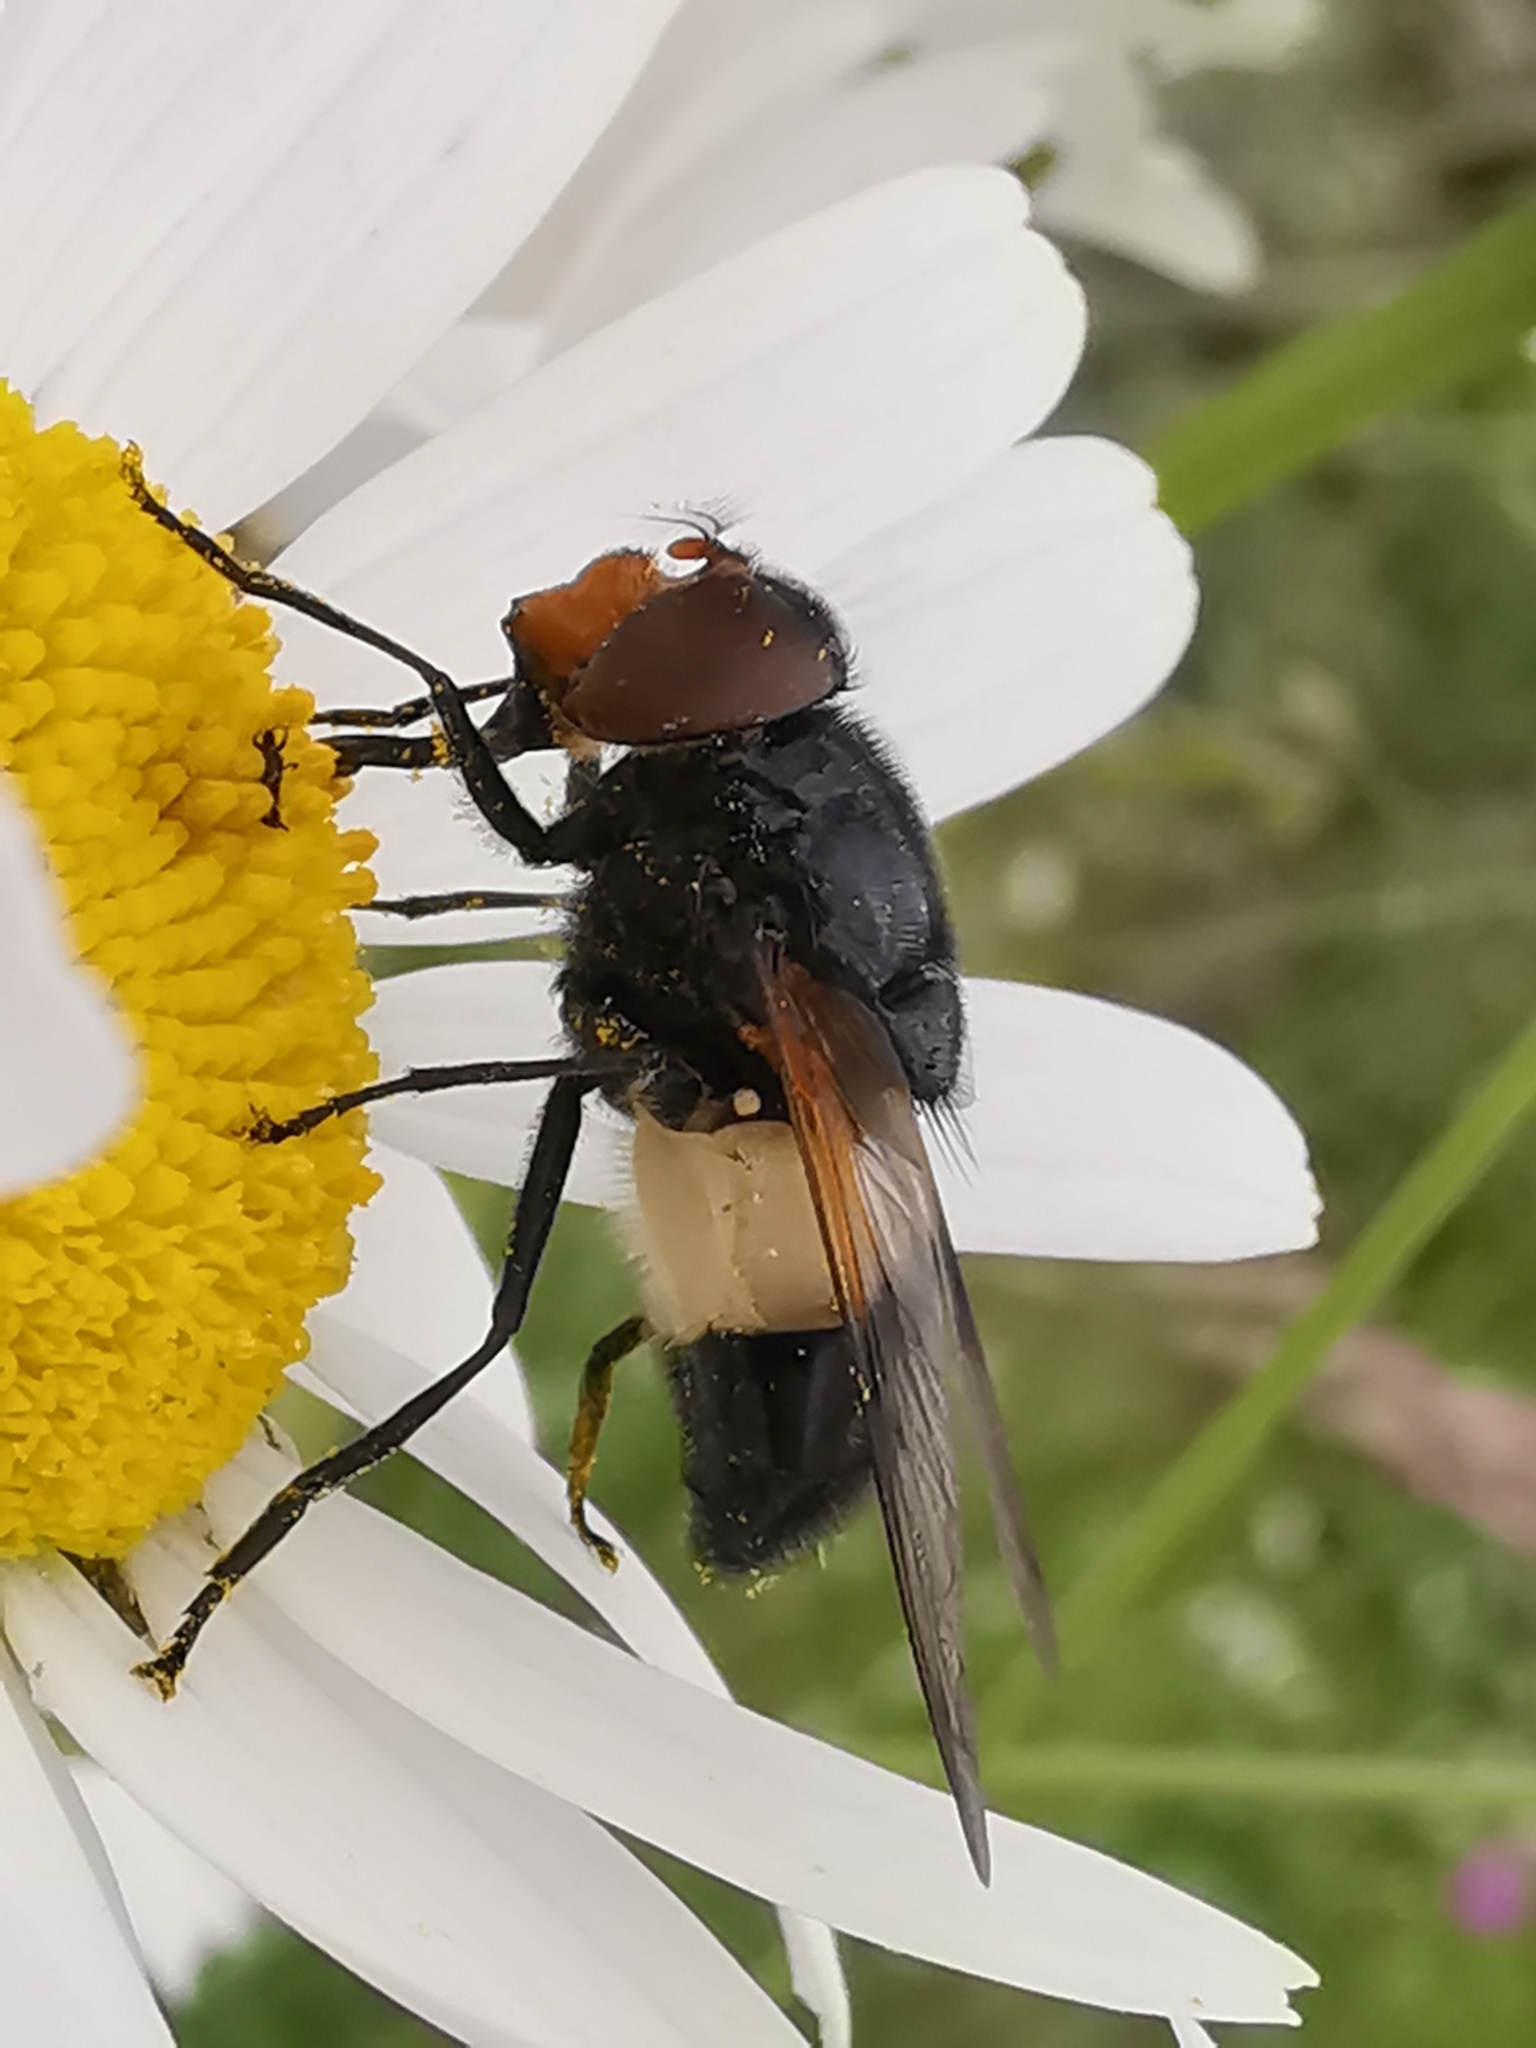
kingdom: Animalia
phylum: Arthropoda
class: Insecta
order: Diptera
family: Syrphidae
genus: Volucella
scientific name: Volucella pellucens
